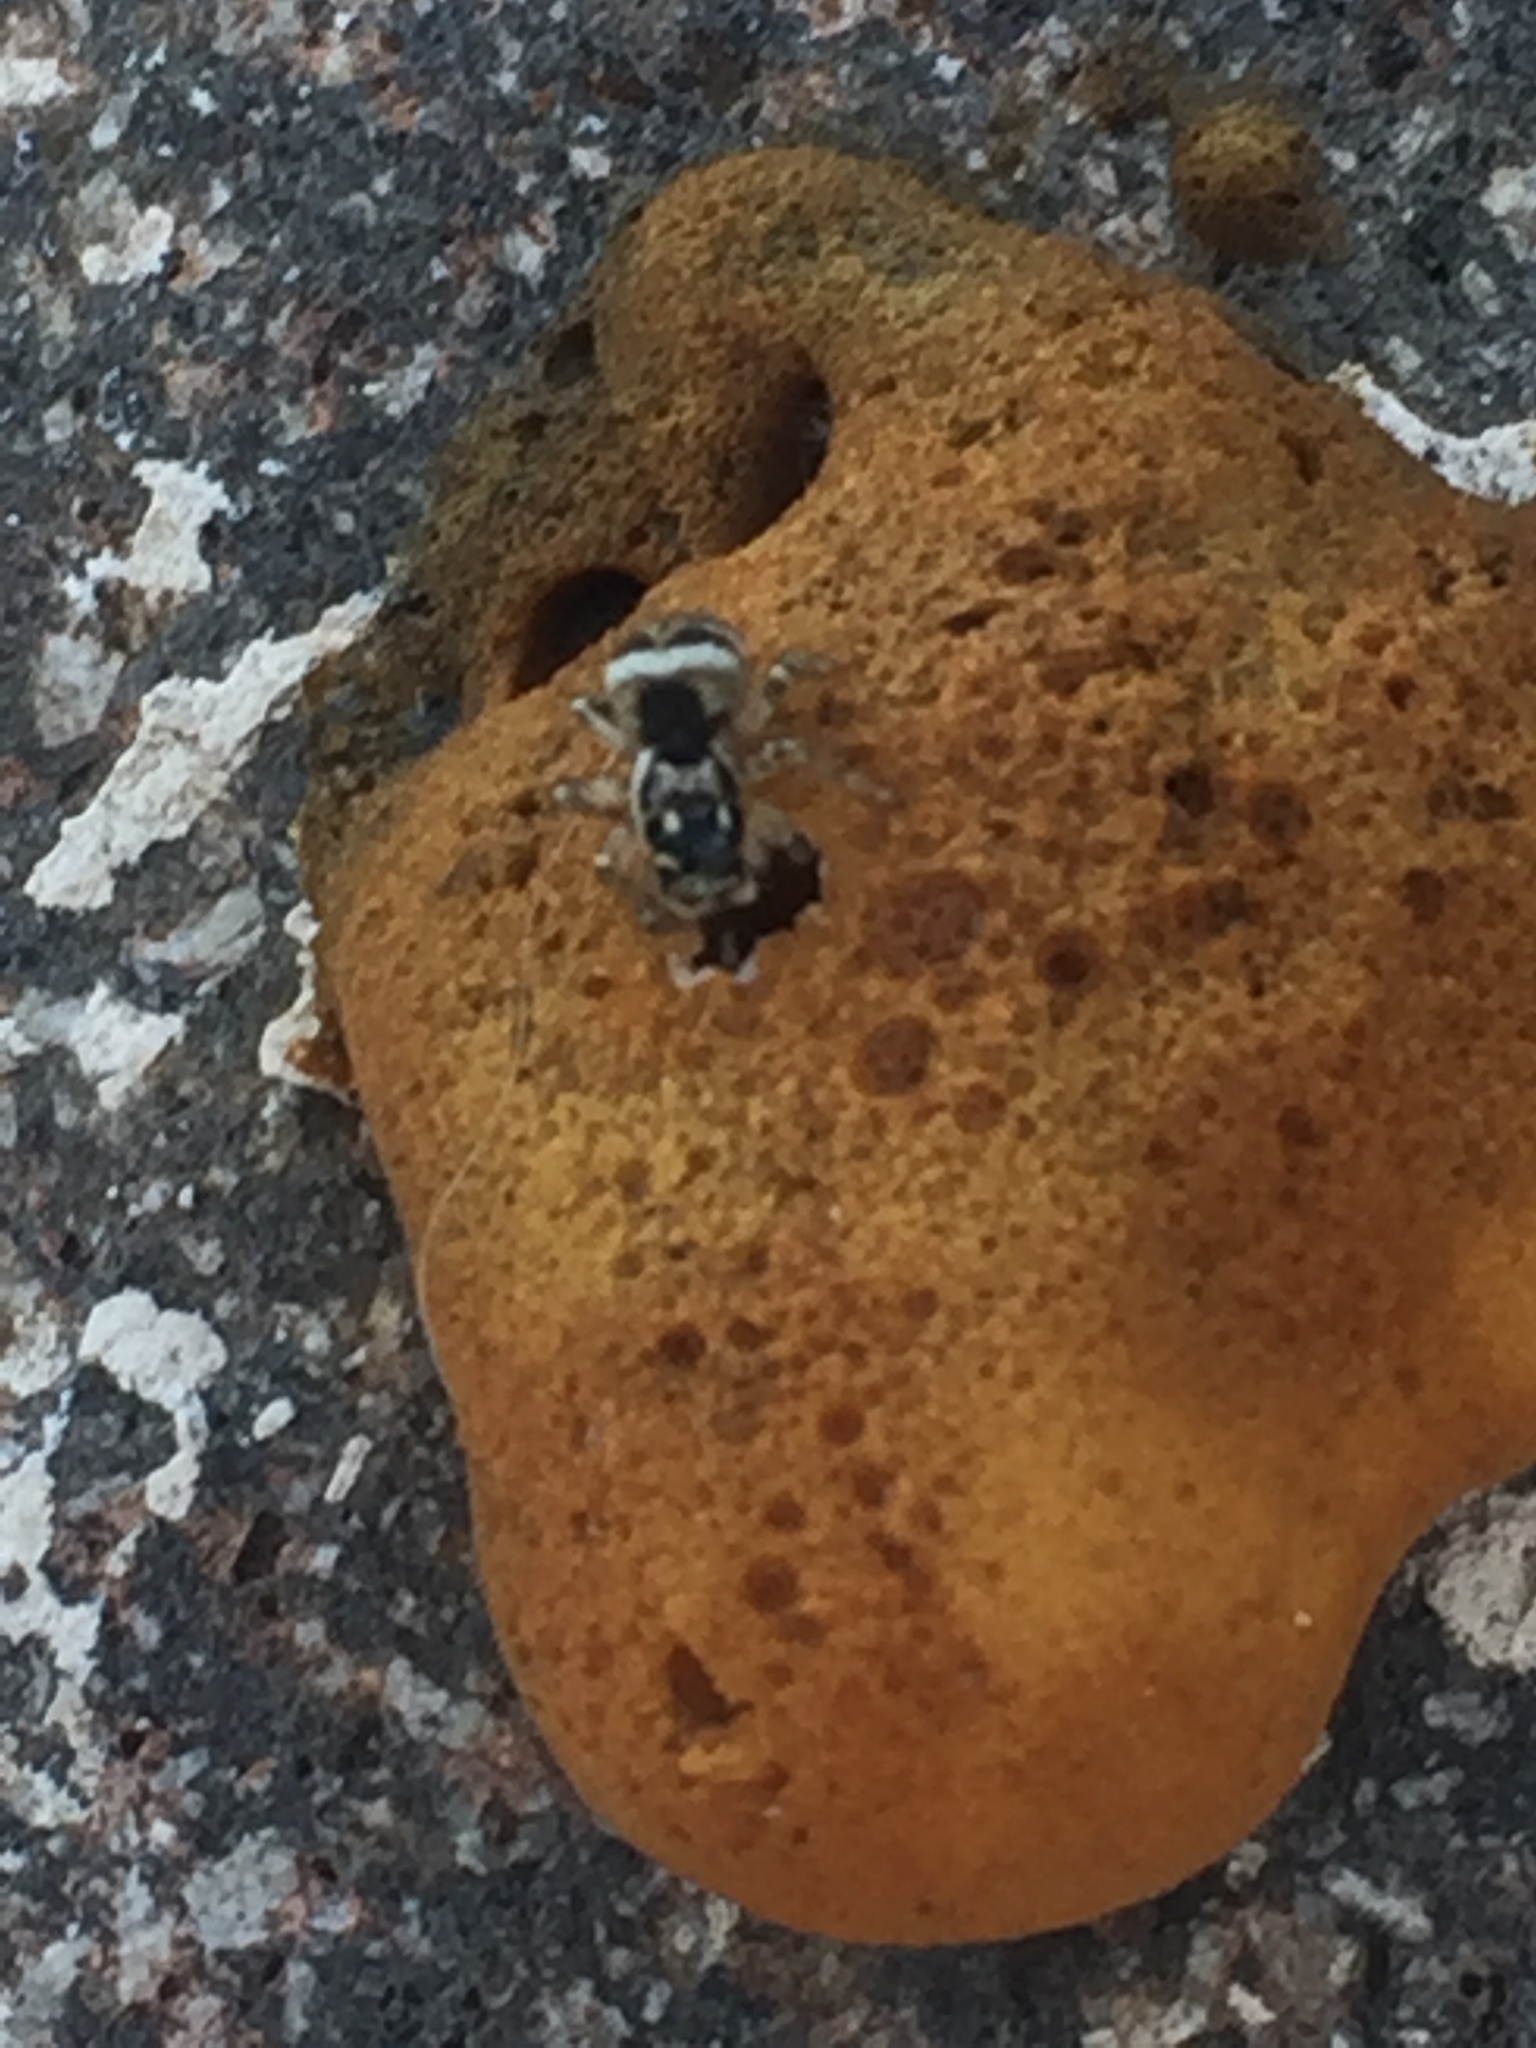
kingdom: Animalia
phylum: Arthropoda
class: Arachnida
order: Araneae
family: Salticidae
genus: Salticus
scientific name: Salticus scenicus
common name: Zebra jumper
